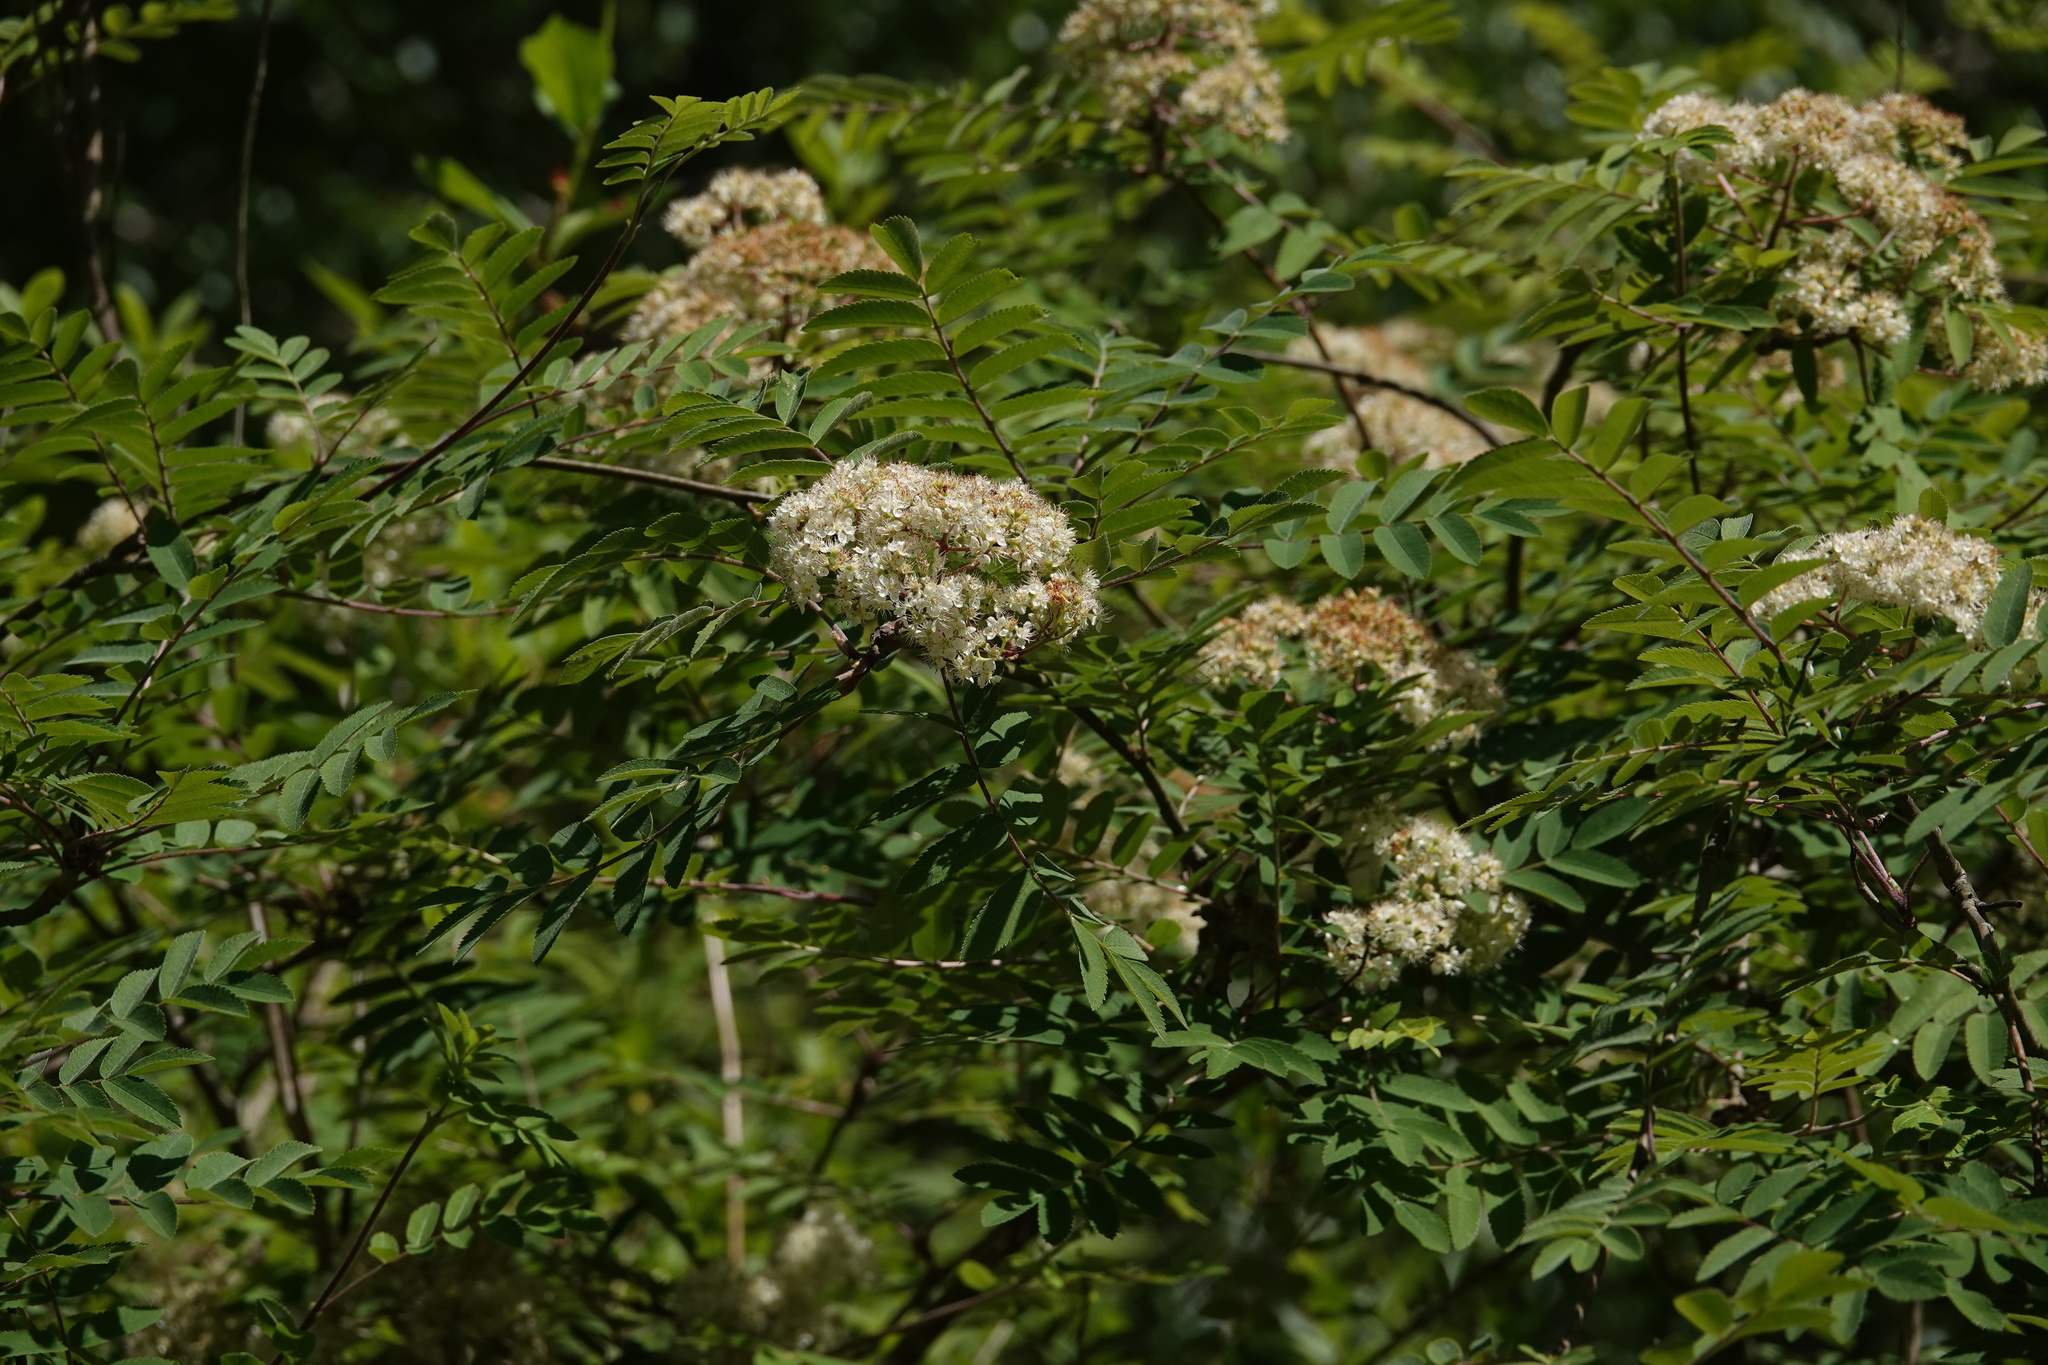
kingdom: Plantae
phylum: Tracheophyta
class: Magnoliopsida
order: Rosales
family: Rosaceae
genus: Sorbus
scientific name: Sorbus aucuparia
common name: Rowan
